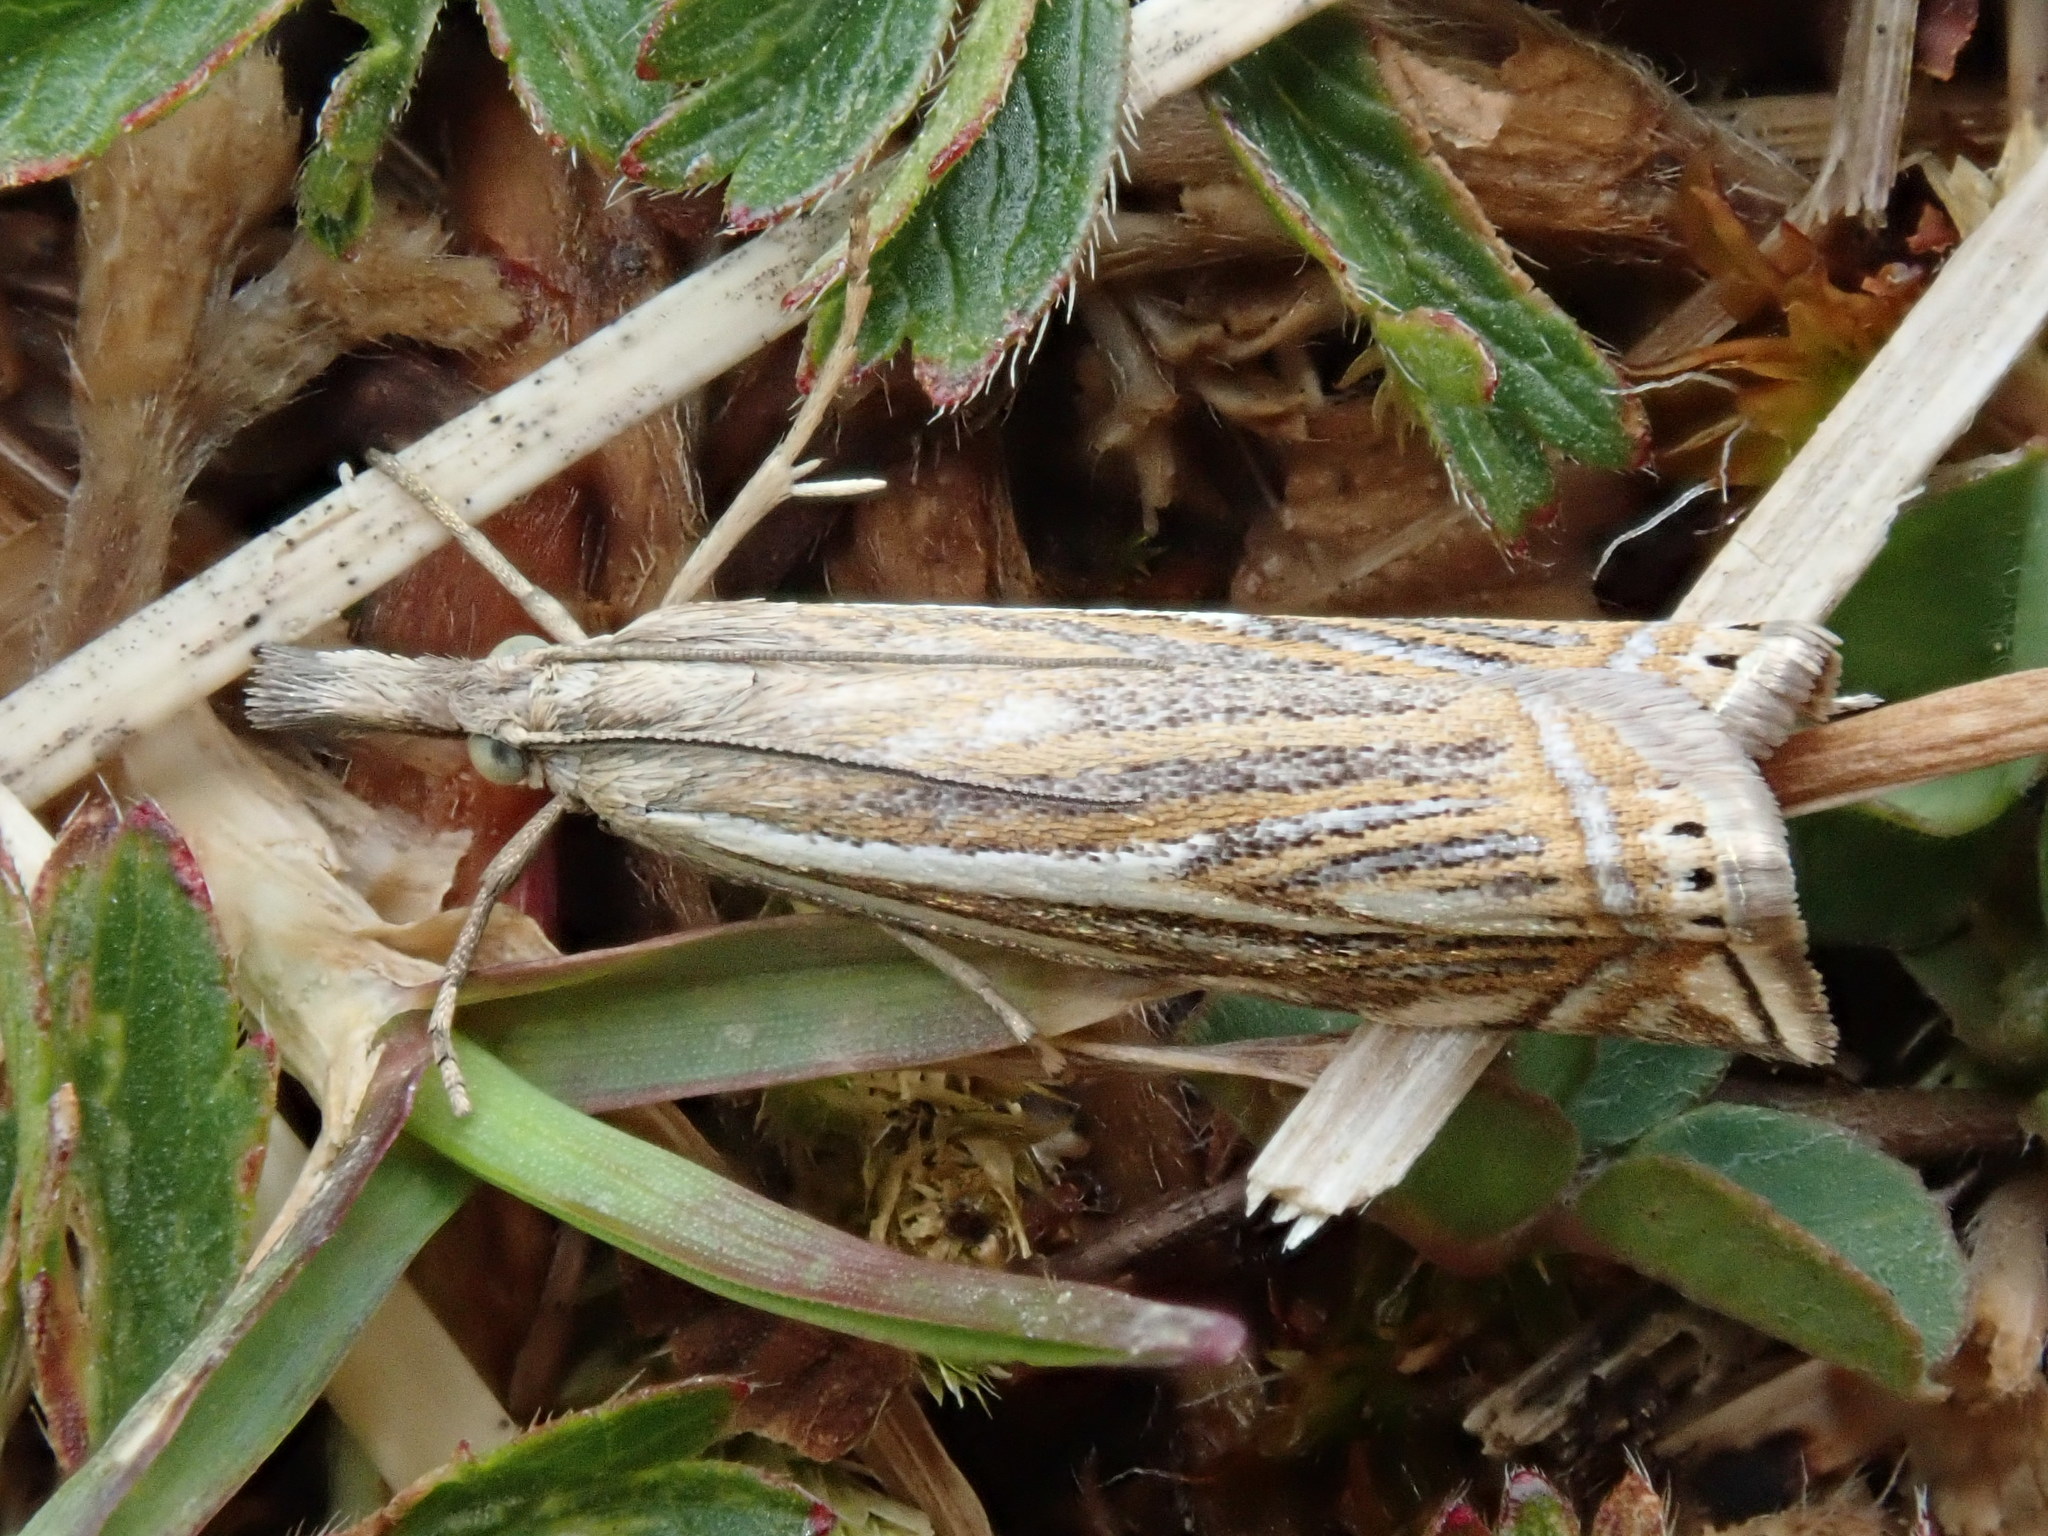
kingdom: Animalia
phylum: Arthropoda
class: Insecta
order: Lepidoptera
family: Crambidae
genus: Crambus
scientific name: Crambus nemorella
